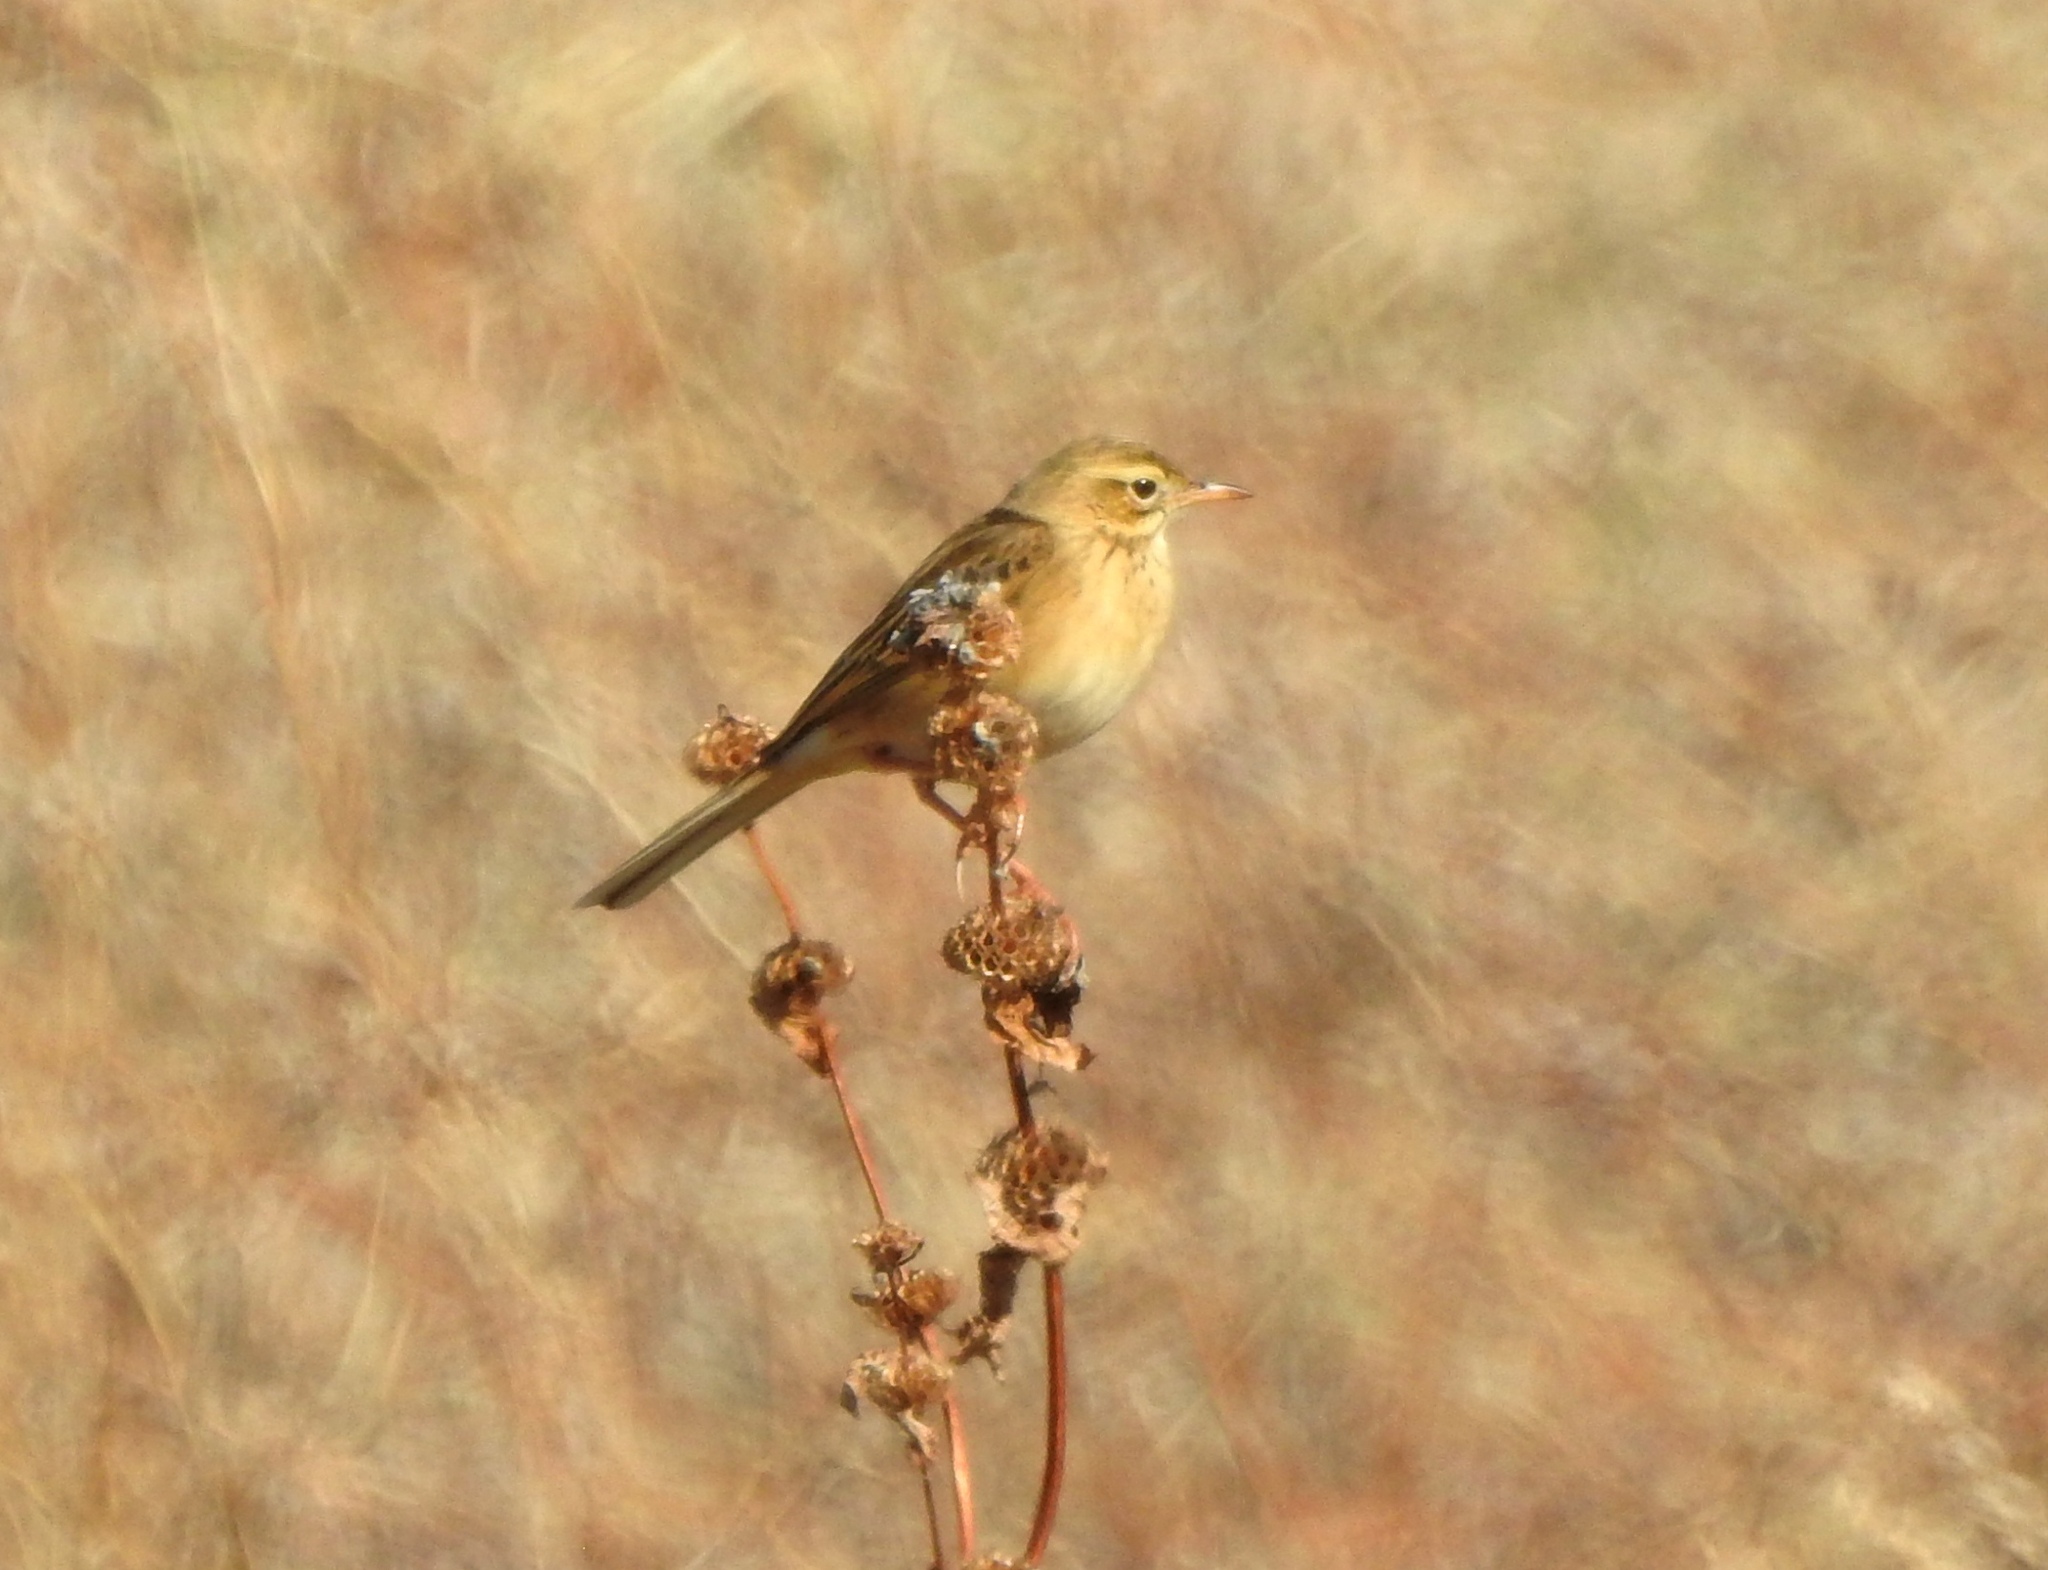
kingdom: Animalia
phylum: Chordata
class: Aves
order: Passeriformes
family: Motacillidae
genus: Anthus
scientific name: Anthus richardi
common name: Richard's pipit
